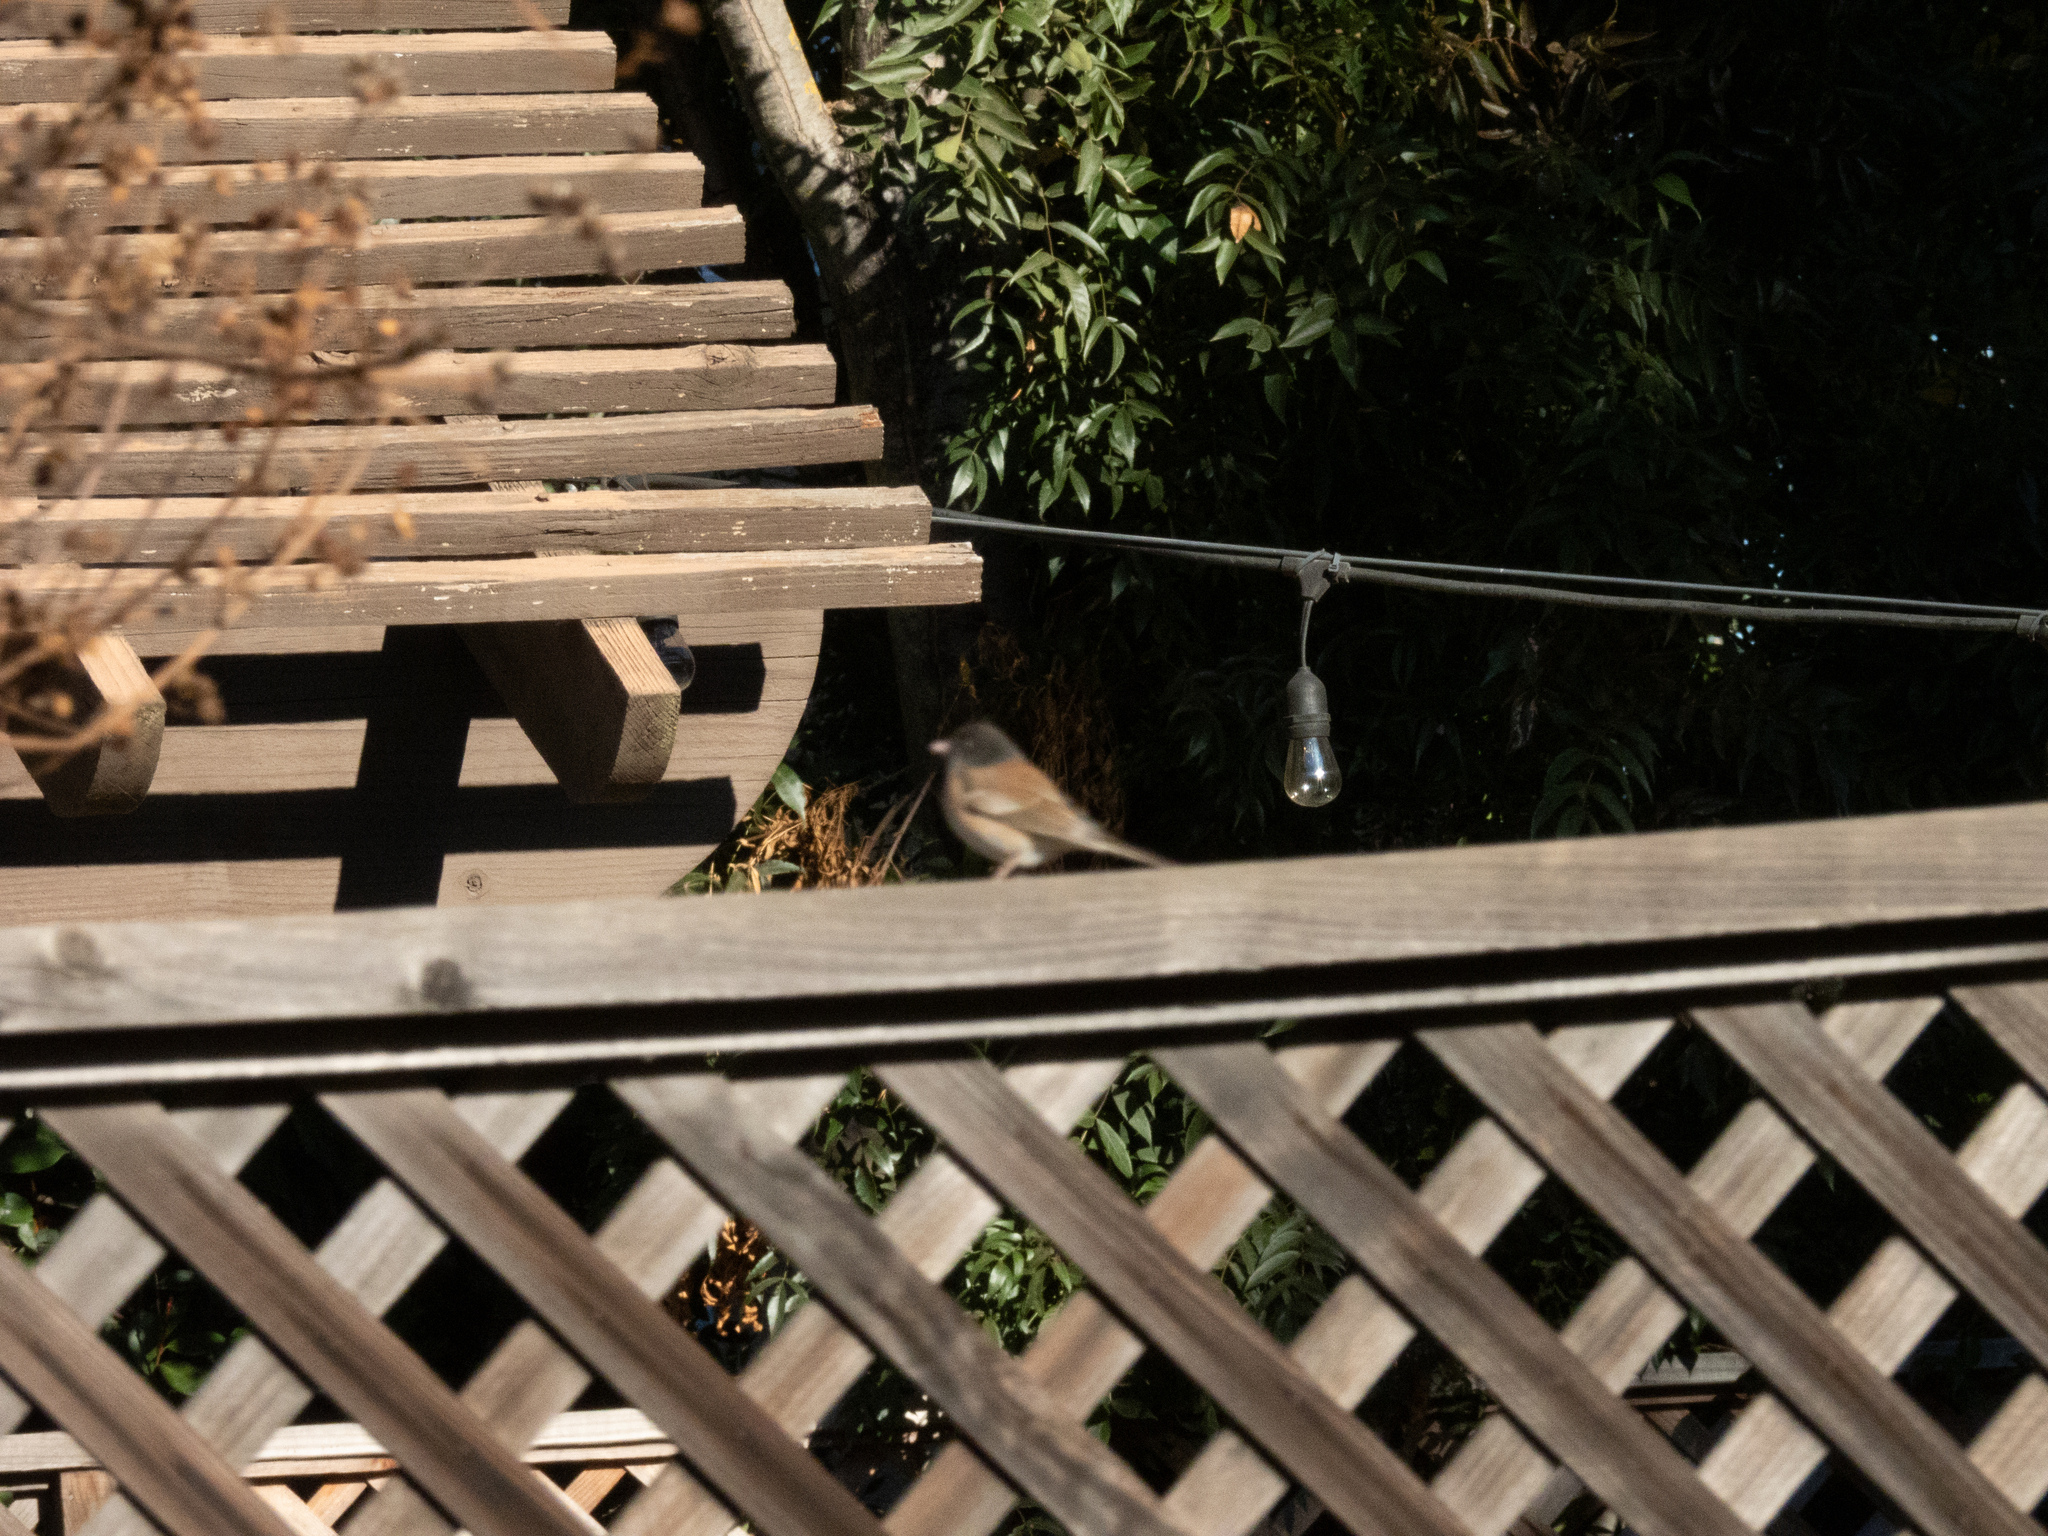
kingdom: Animalia
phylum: Chordata
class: Aves
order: Passeriformes
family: Passerellidae
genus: Junco
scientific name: Junco hyemalis
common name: Dark-eyed junco
